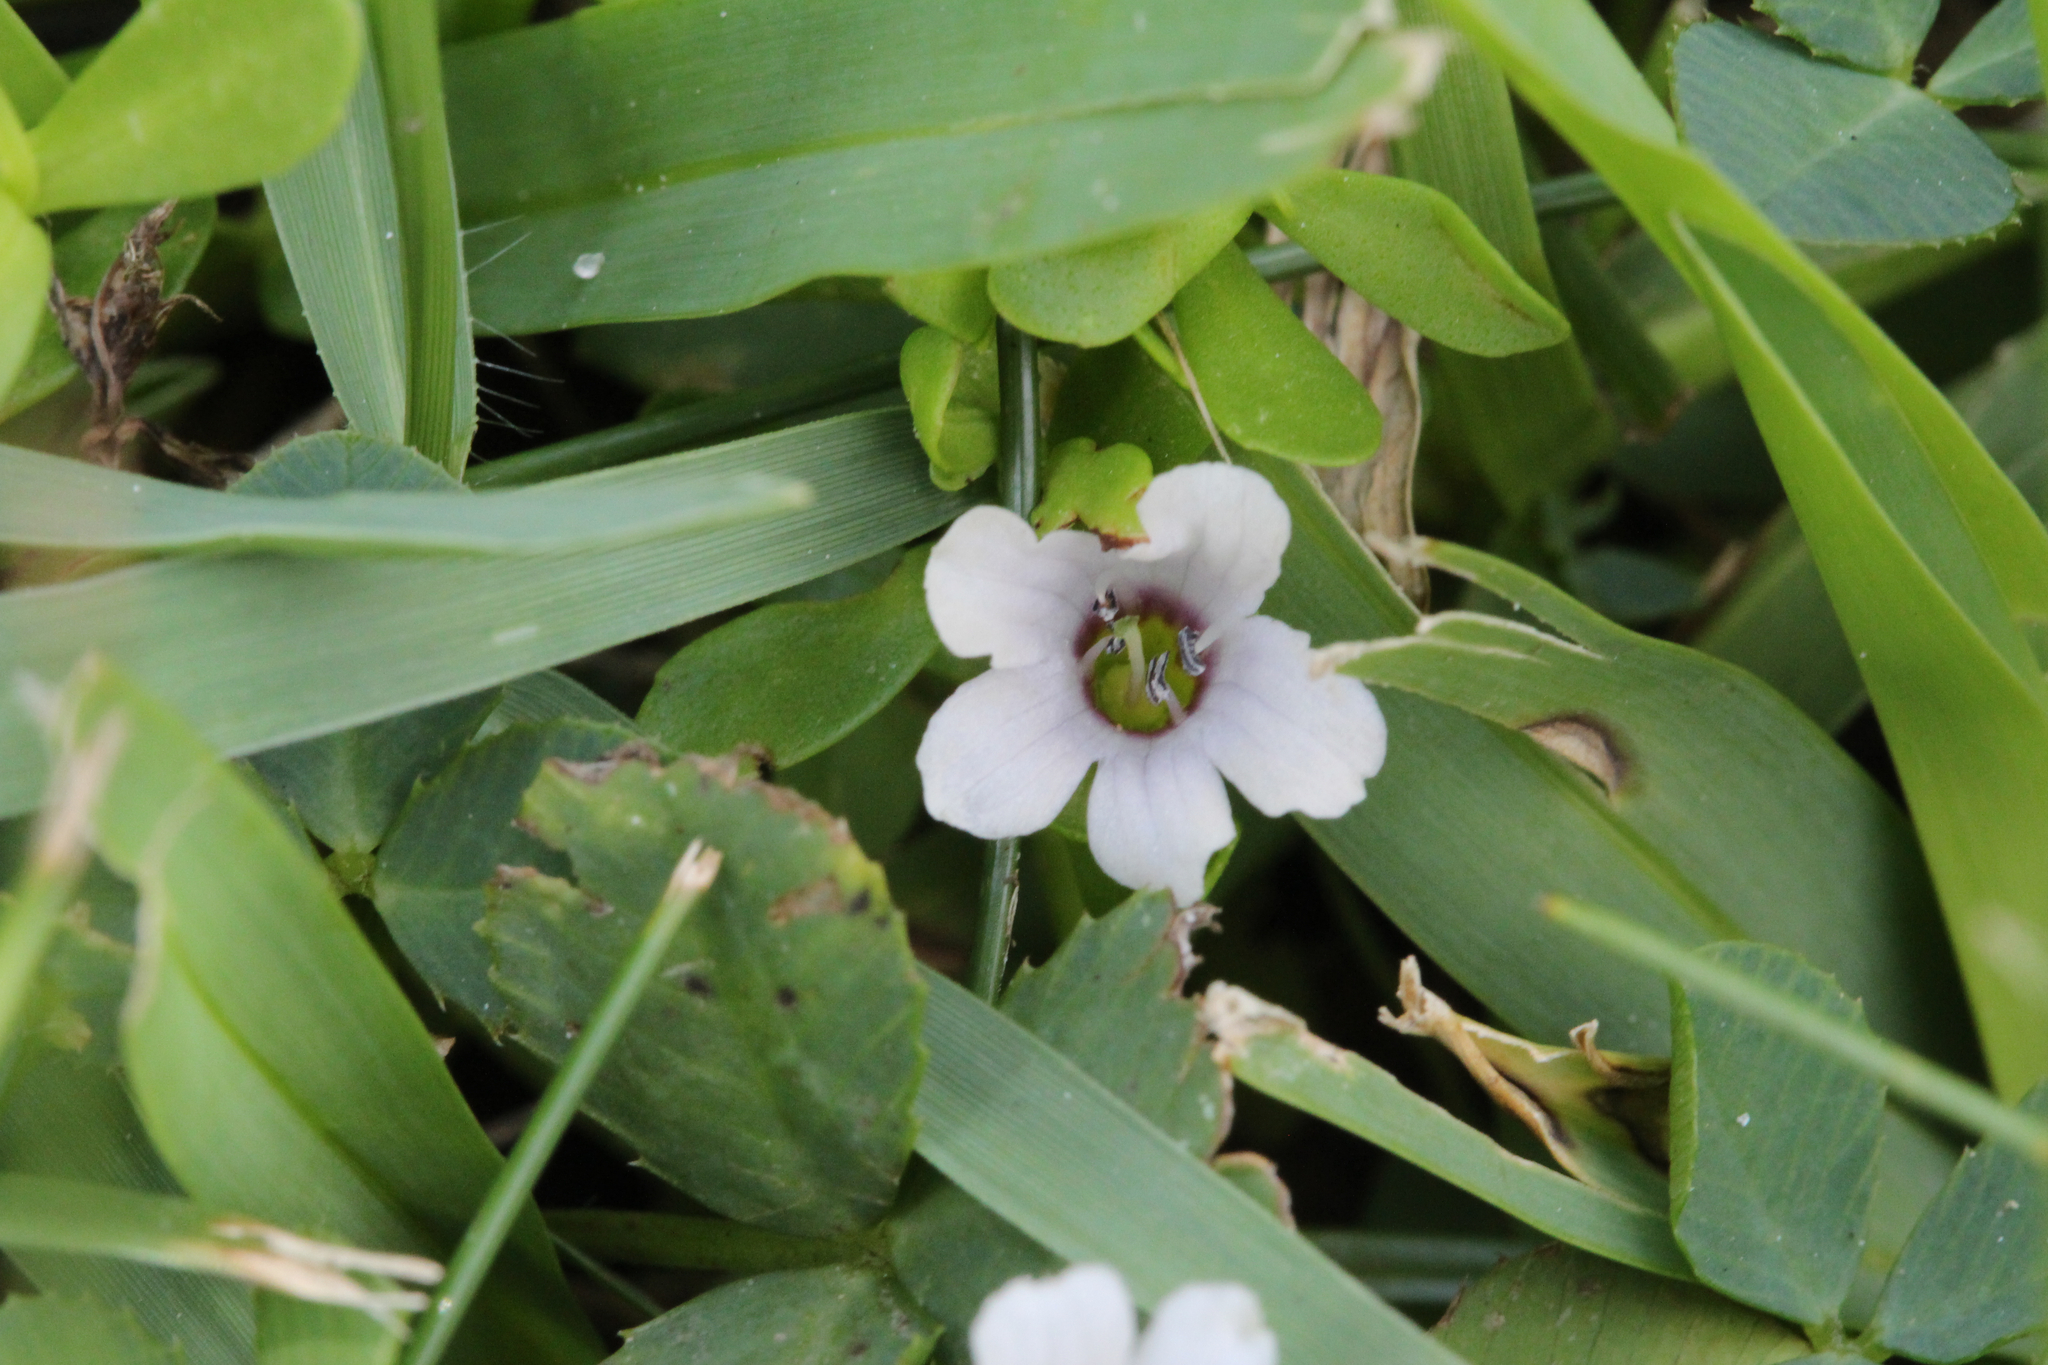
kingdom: Plantae
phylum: Tracheophyta
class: Magnoliopsida
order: Lamiales
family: Plantaginaceae
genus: Bacopa
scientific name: Bacopa monnieri
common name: Indian-pennywort
